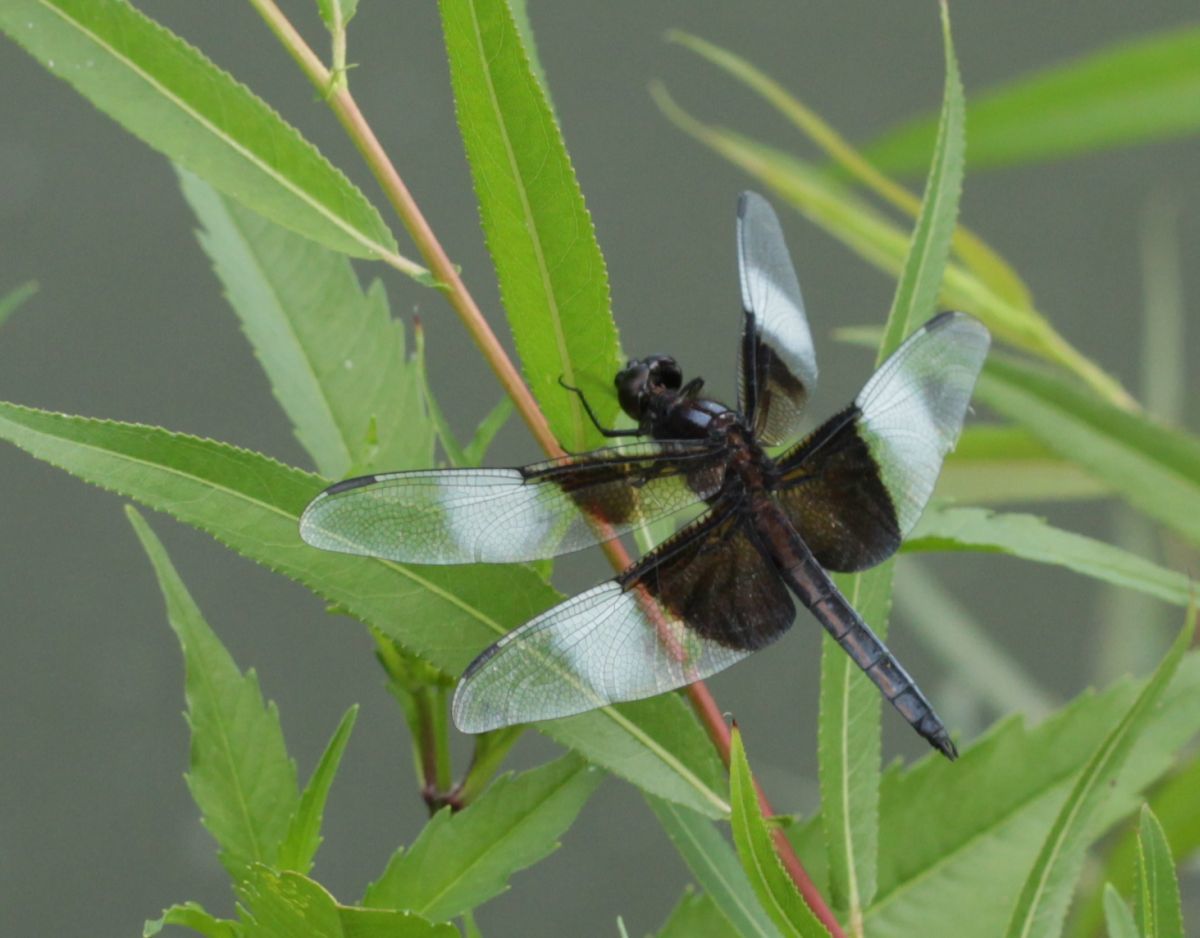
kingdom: Animalia
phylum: Arthropoda
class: Insecta
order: Odonata
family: Libellulidae
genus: Libellula
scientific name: Libellula luctuosa
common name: Widow skimmer
